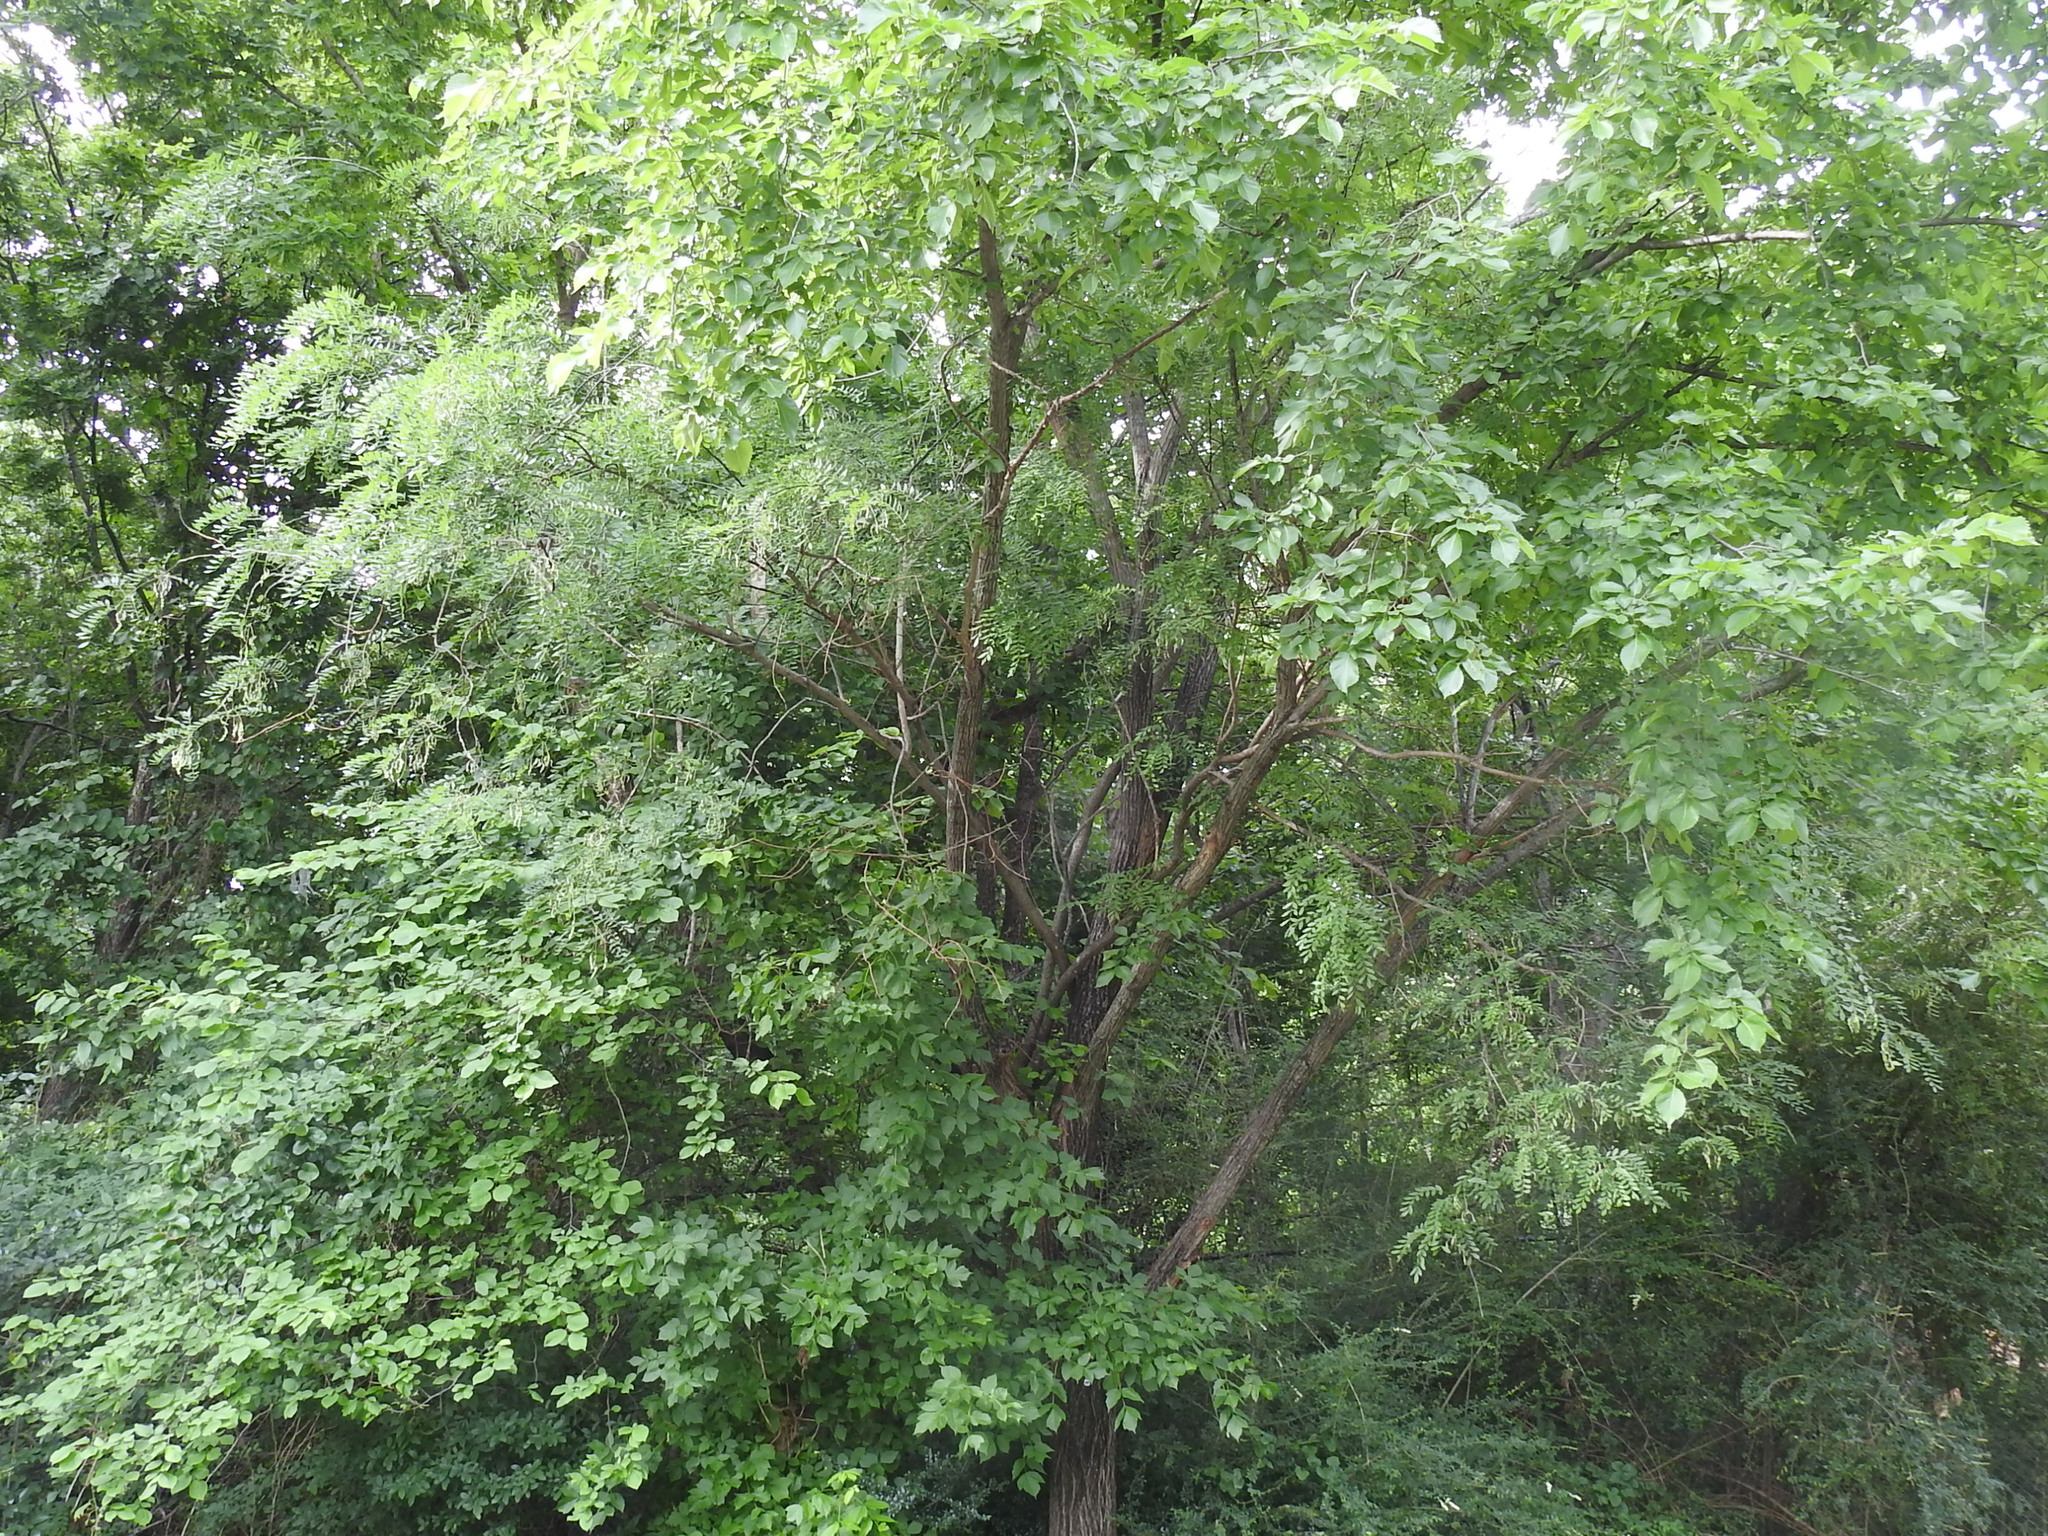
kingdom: Plantae
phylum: Tracheophyta
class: Magnoliopsida
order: Fabales
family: Fabaceae
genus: Styphnolobium
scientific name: Styphnolobium affine
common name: Texas sophora
